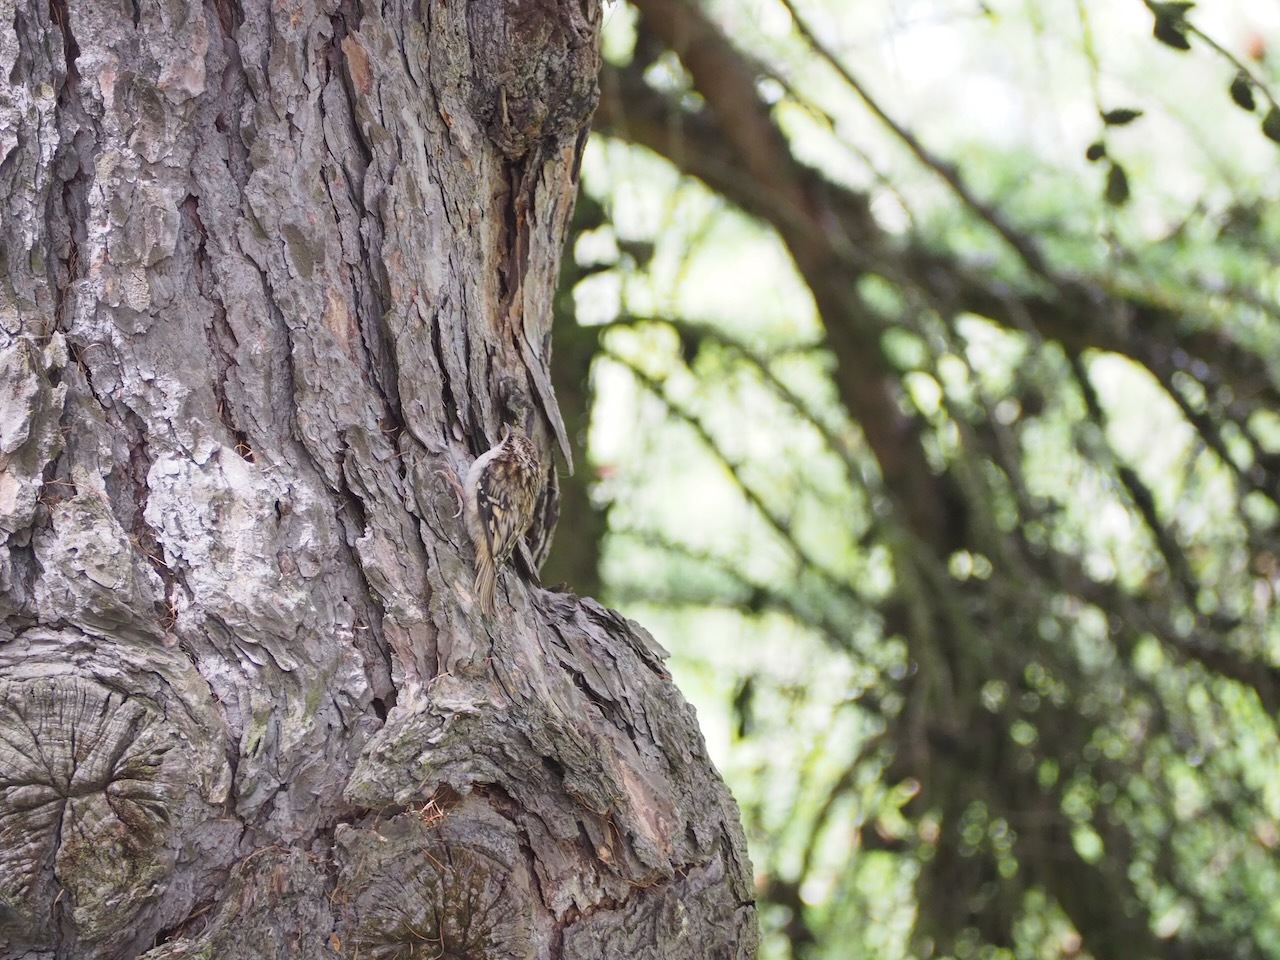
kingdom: Animalia
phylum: Chordata
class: Aves
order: Passeriformes
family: Certhiidae
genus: Certhia
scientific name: Certhia americana
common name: Brown creeper
